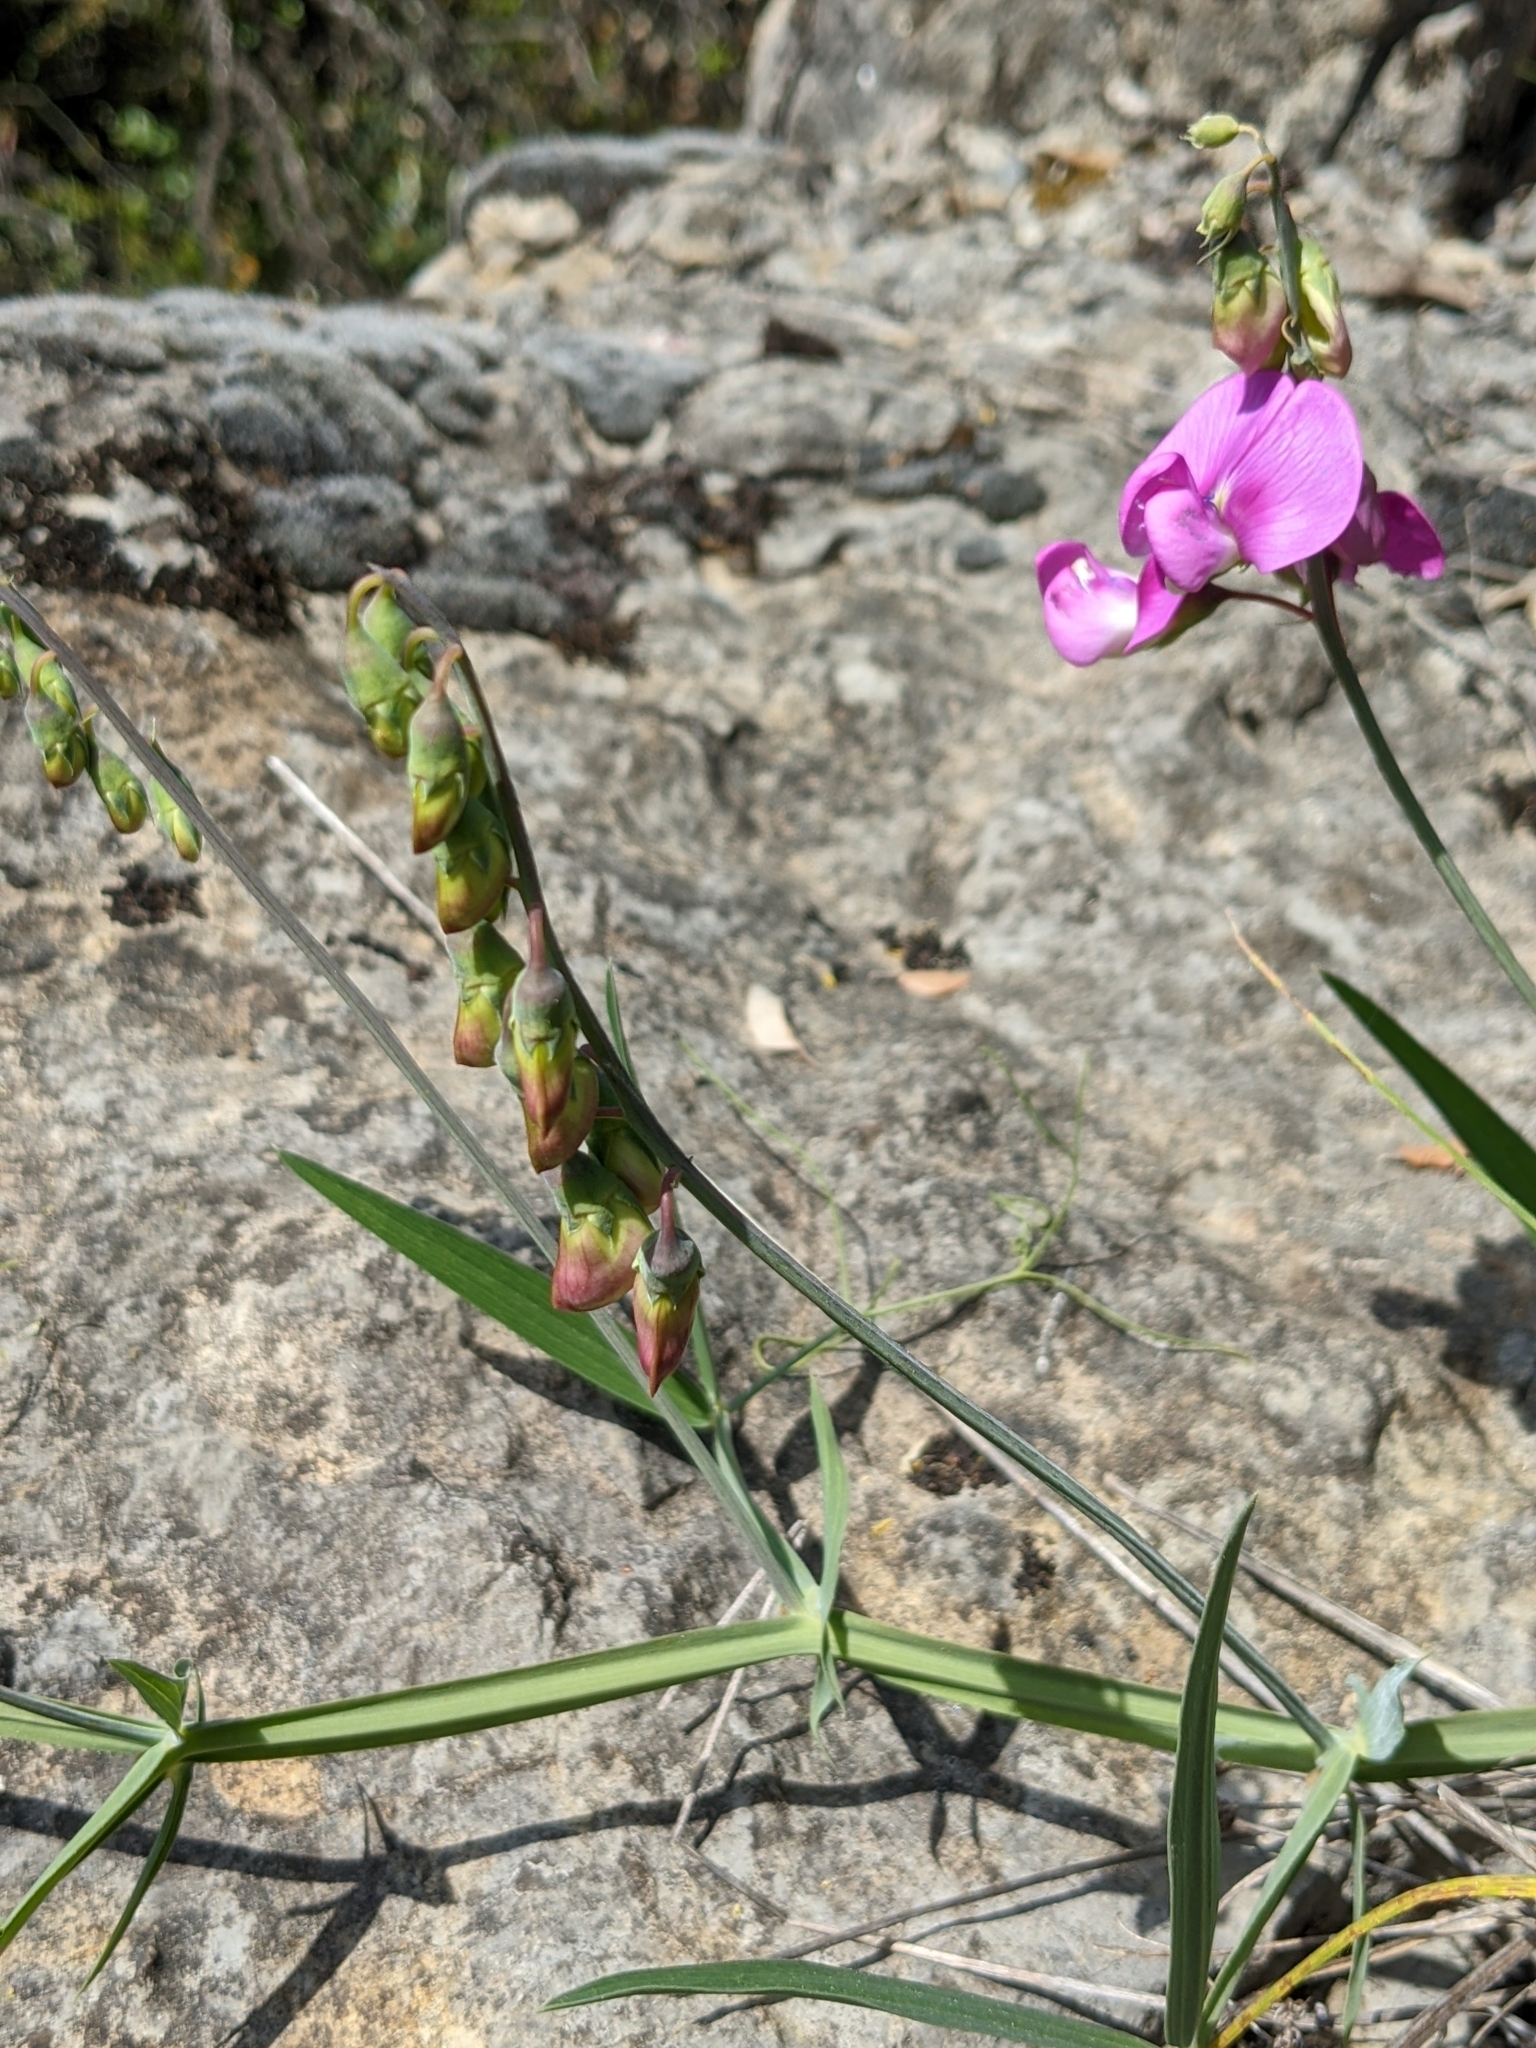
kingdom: Plantae
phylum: Tracheophyta
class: Magnoliopsida
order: Fabales
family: Fabaceae
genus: Lathyrus
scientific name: Lathyrus latifolius
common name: Perennial pea
